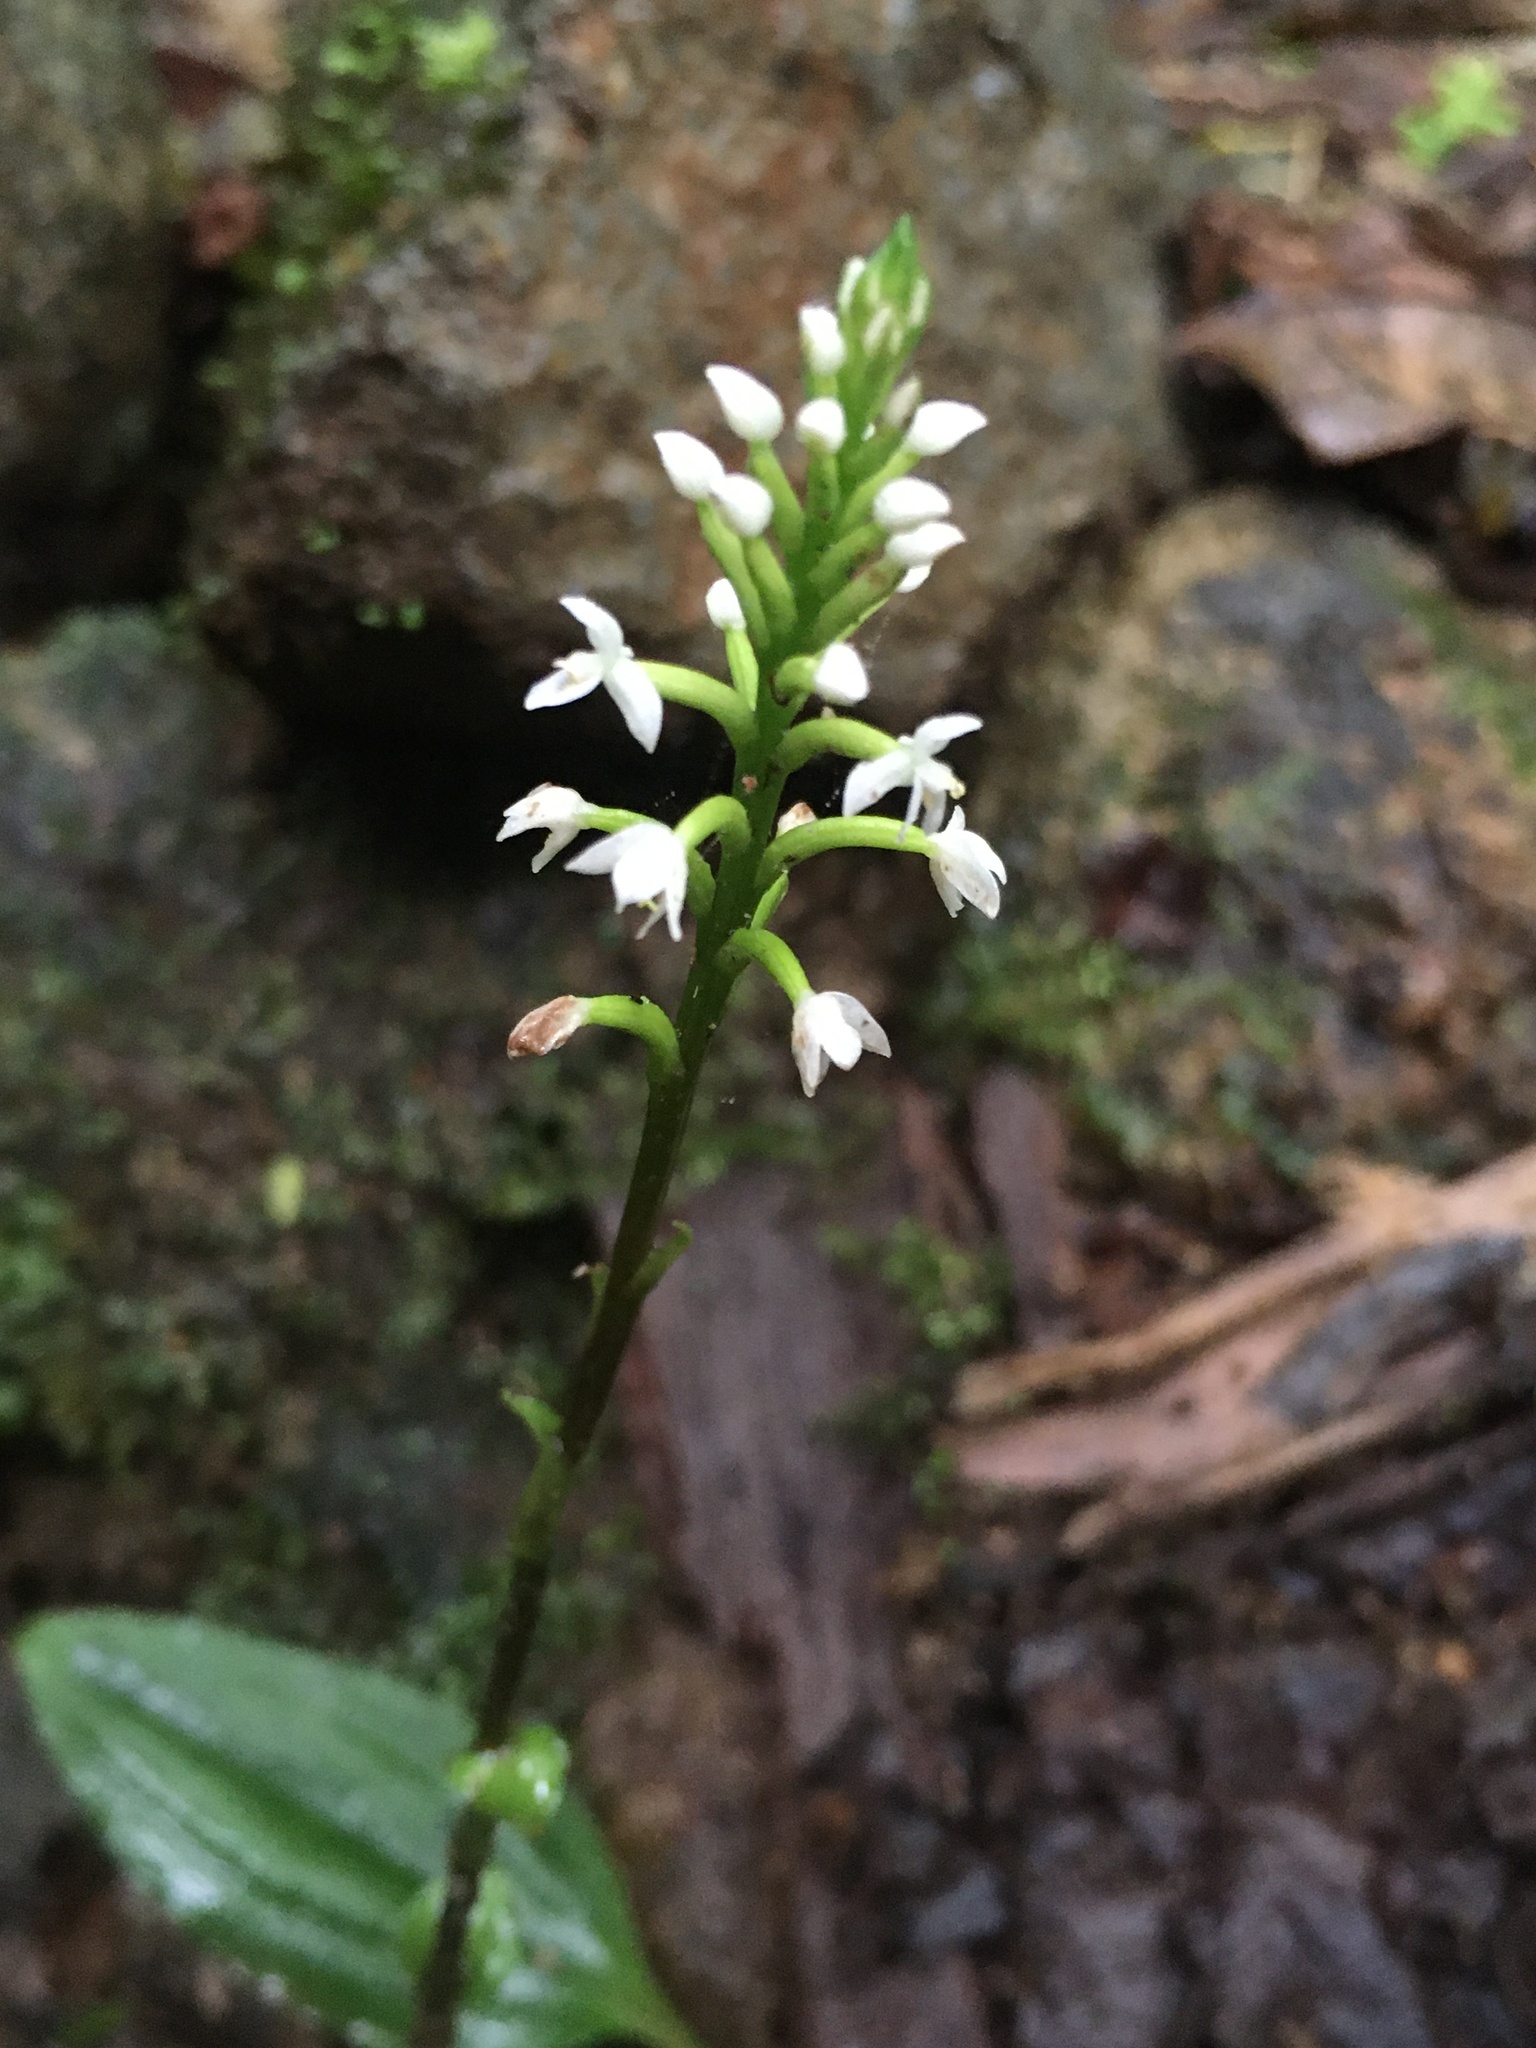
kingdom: Plantae
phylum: Tracheophyta
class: Liliopsida
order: Asparagales
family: Orchidaceae
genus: Cranichis
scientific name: Cranichis muscosa
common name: Cypress-knee helmet orchid
